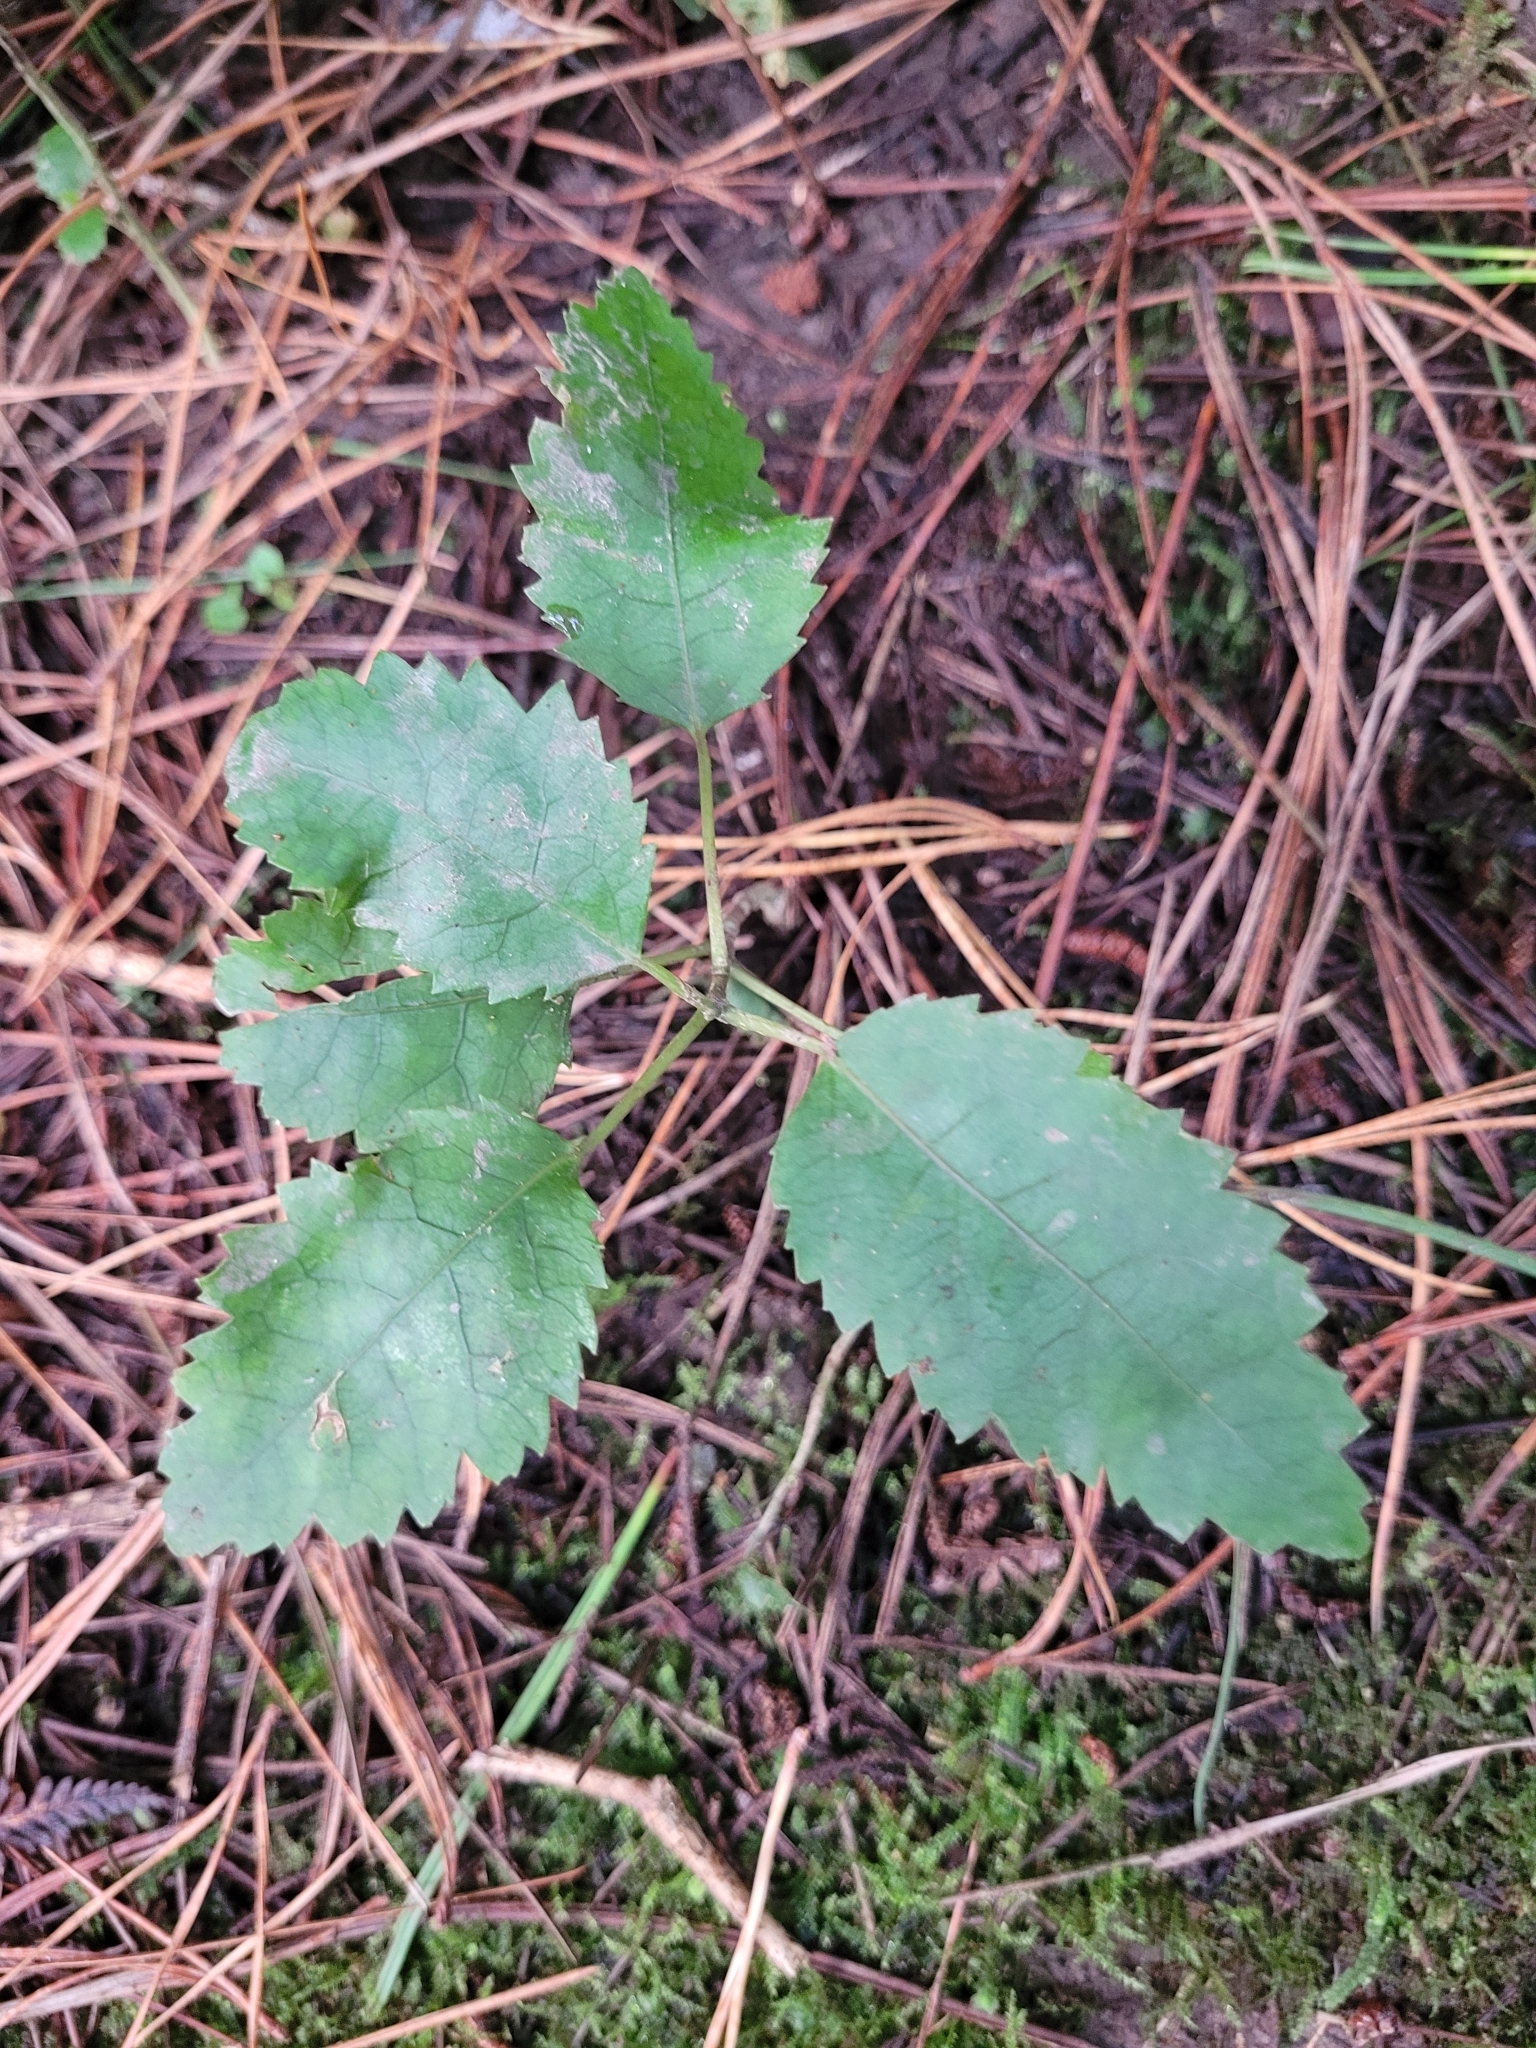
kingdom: Plantae
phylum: Tracheophyta
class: Magnoliopsida
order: Malvales
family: Malvaceae
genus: Hoheria
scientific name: Hoheria populnea
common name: Lacebark
